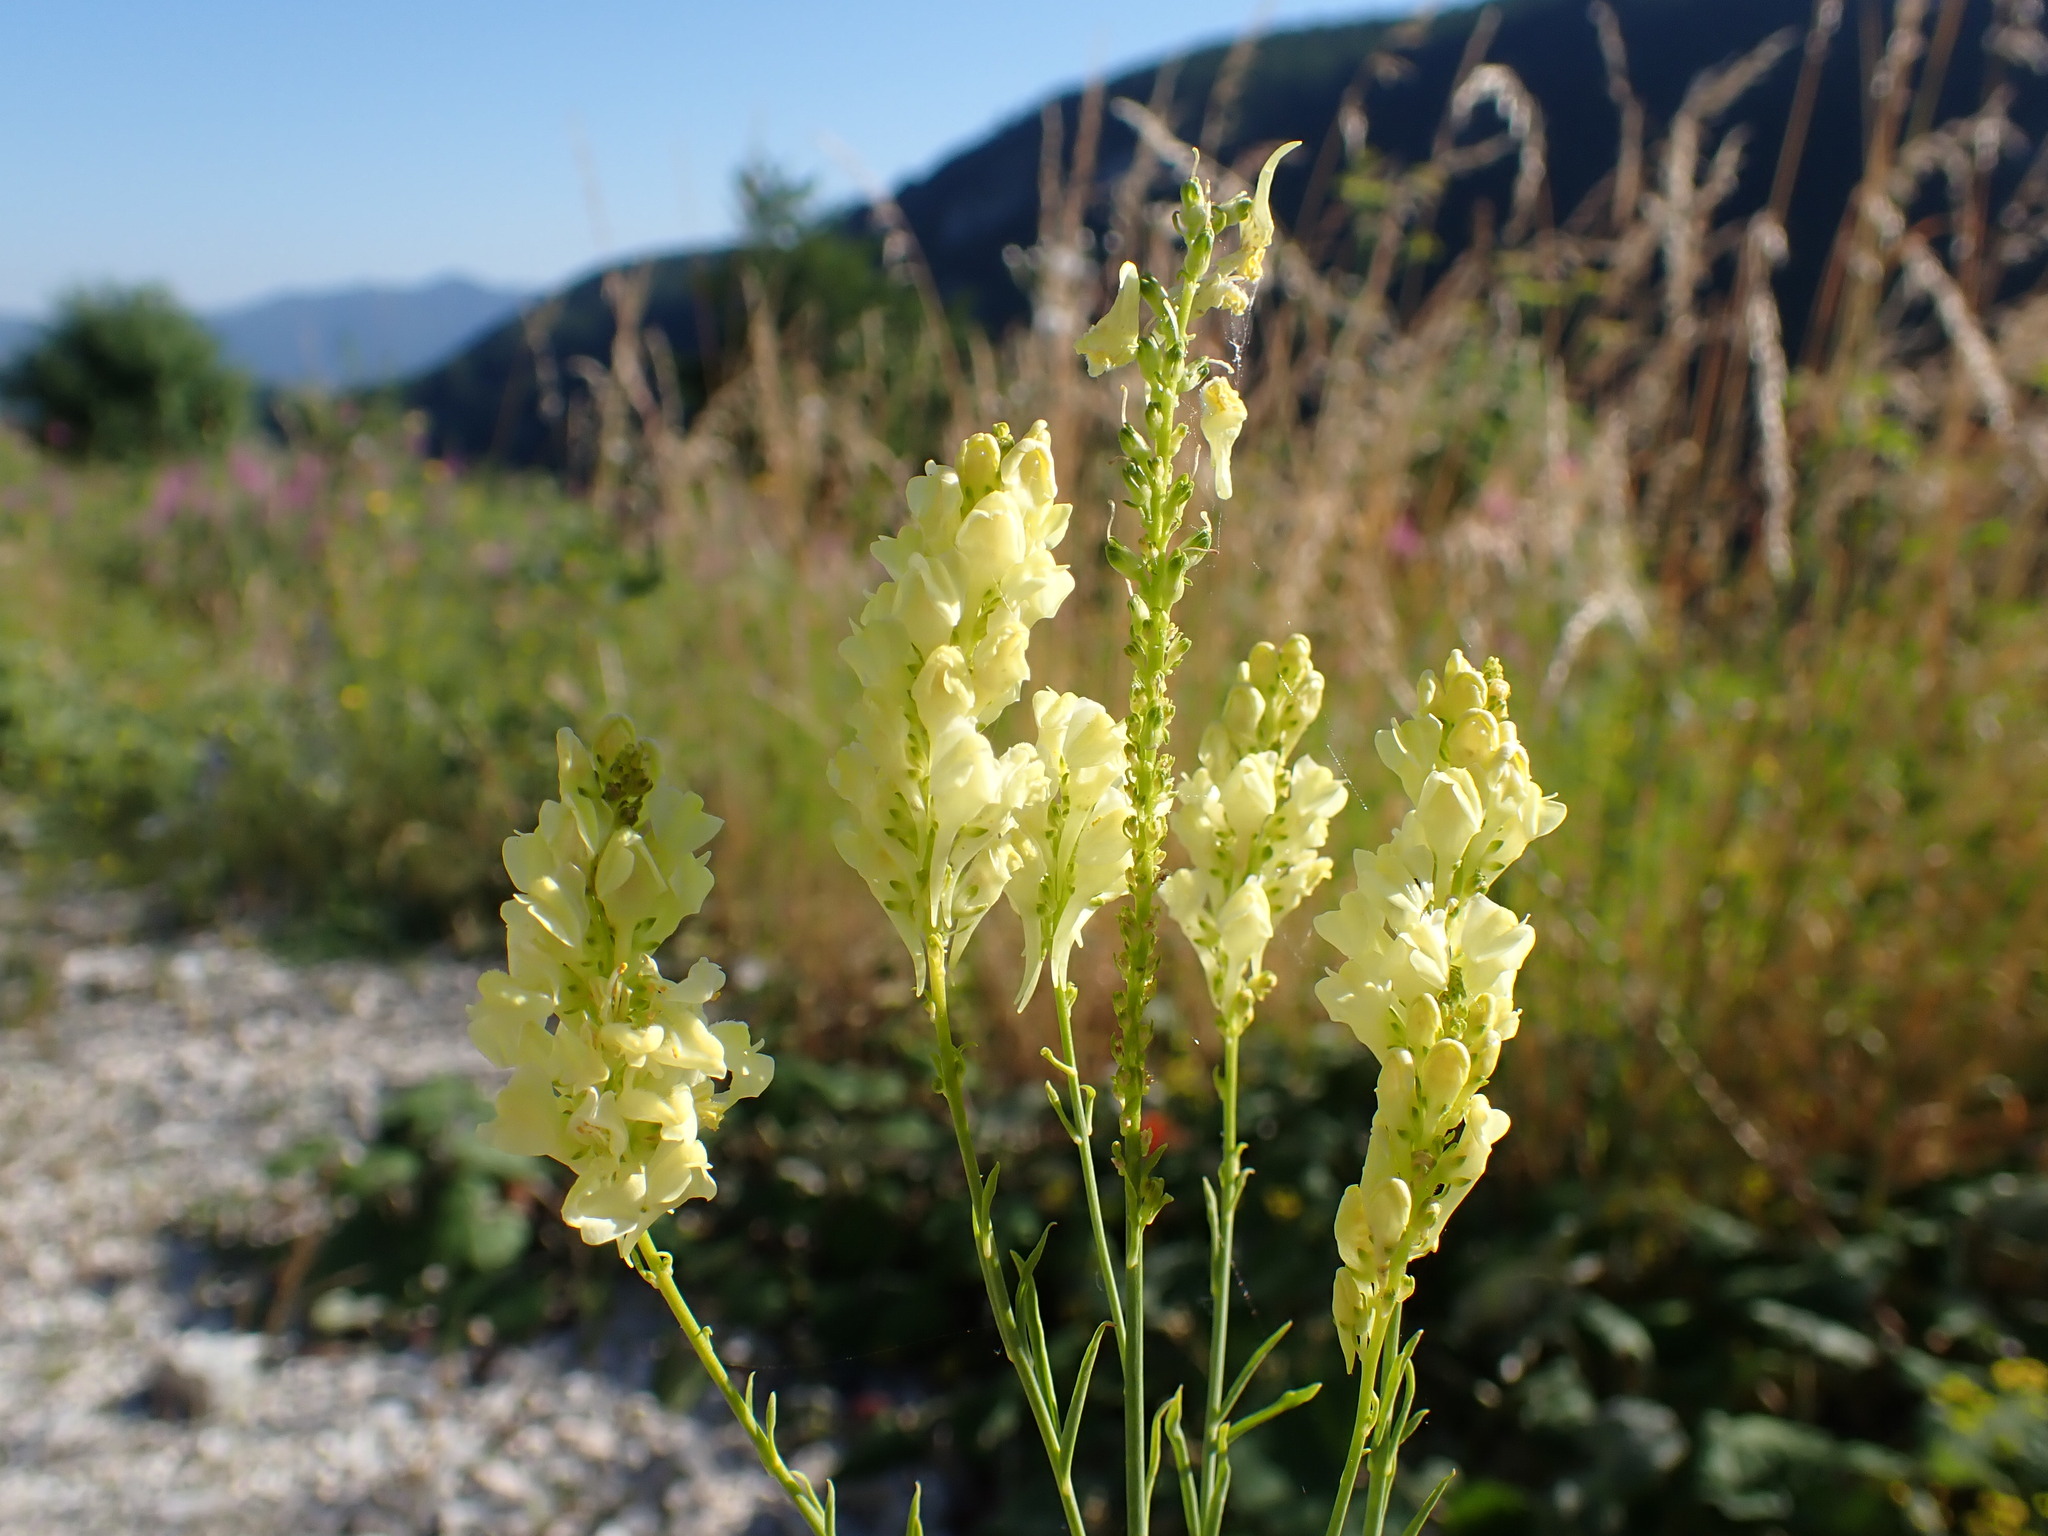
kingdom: Plantae
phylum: Tracheophyta
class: Magnoliopsida
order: Lamiales
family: Plantaginaceae
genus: Linaria
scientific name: Linaria peloponnesiaca
